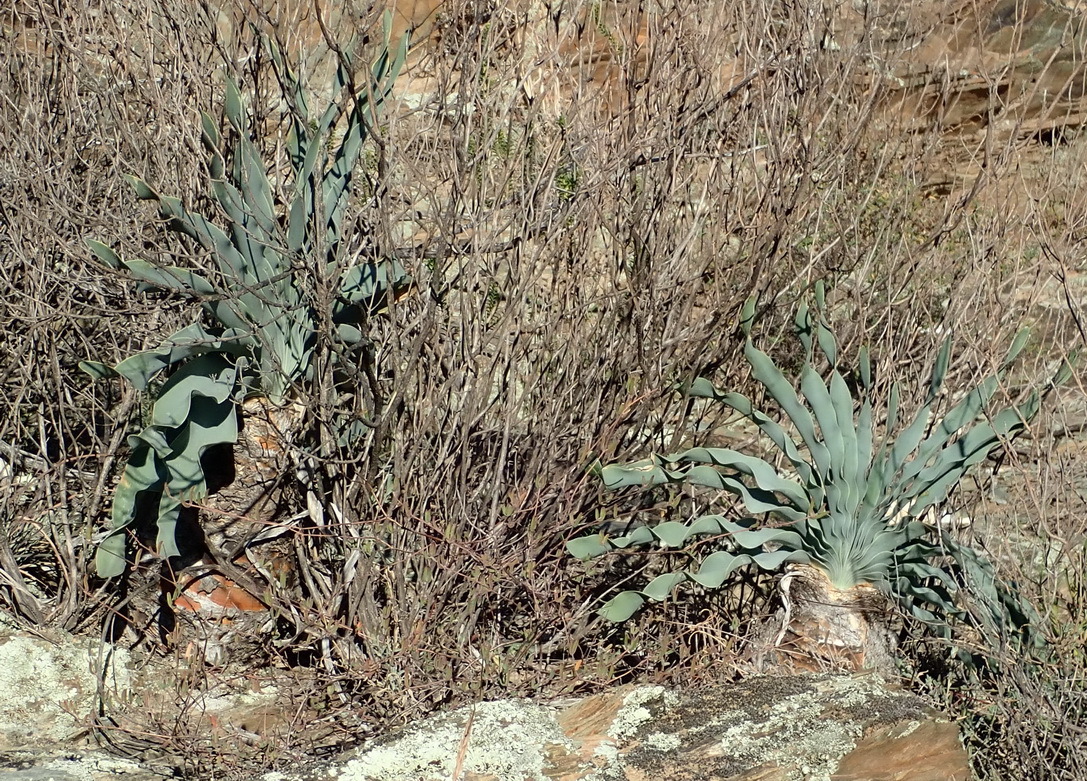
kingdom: Plantae
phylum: Tracheophyta
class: Liliopsida
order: Asparagales
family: Amaryllidaceae
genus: Boophone
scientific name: Boophone disticha
